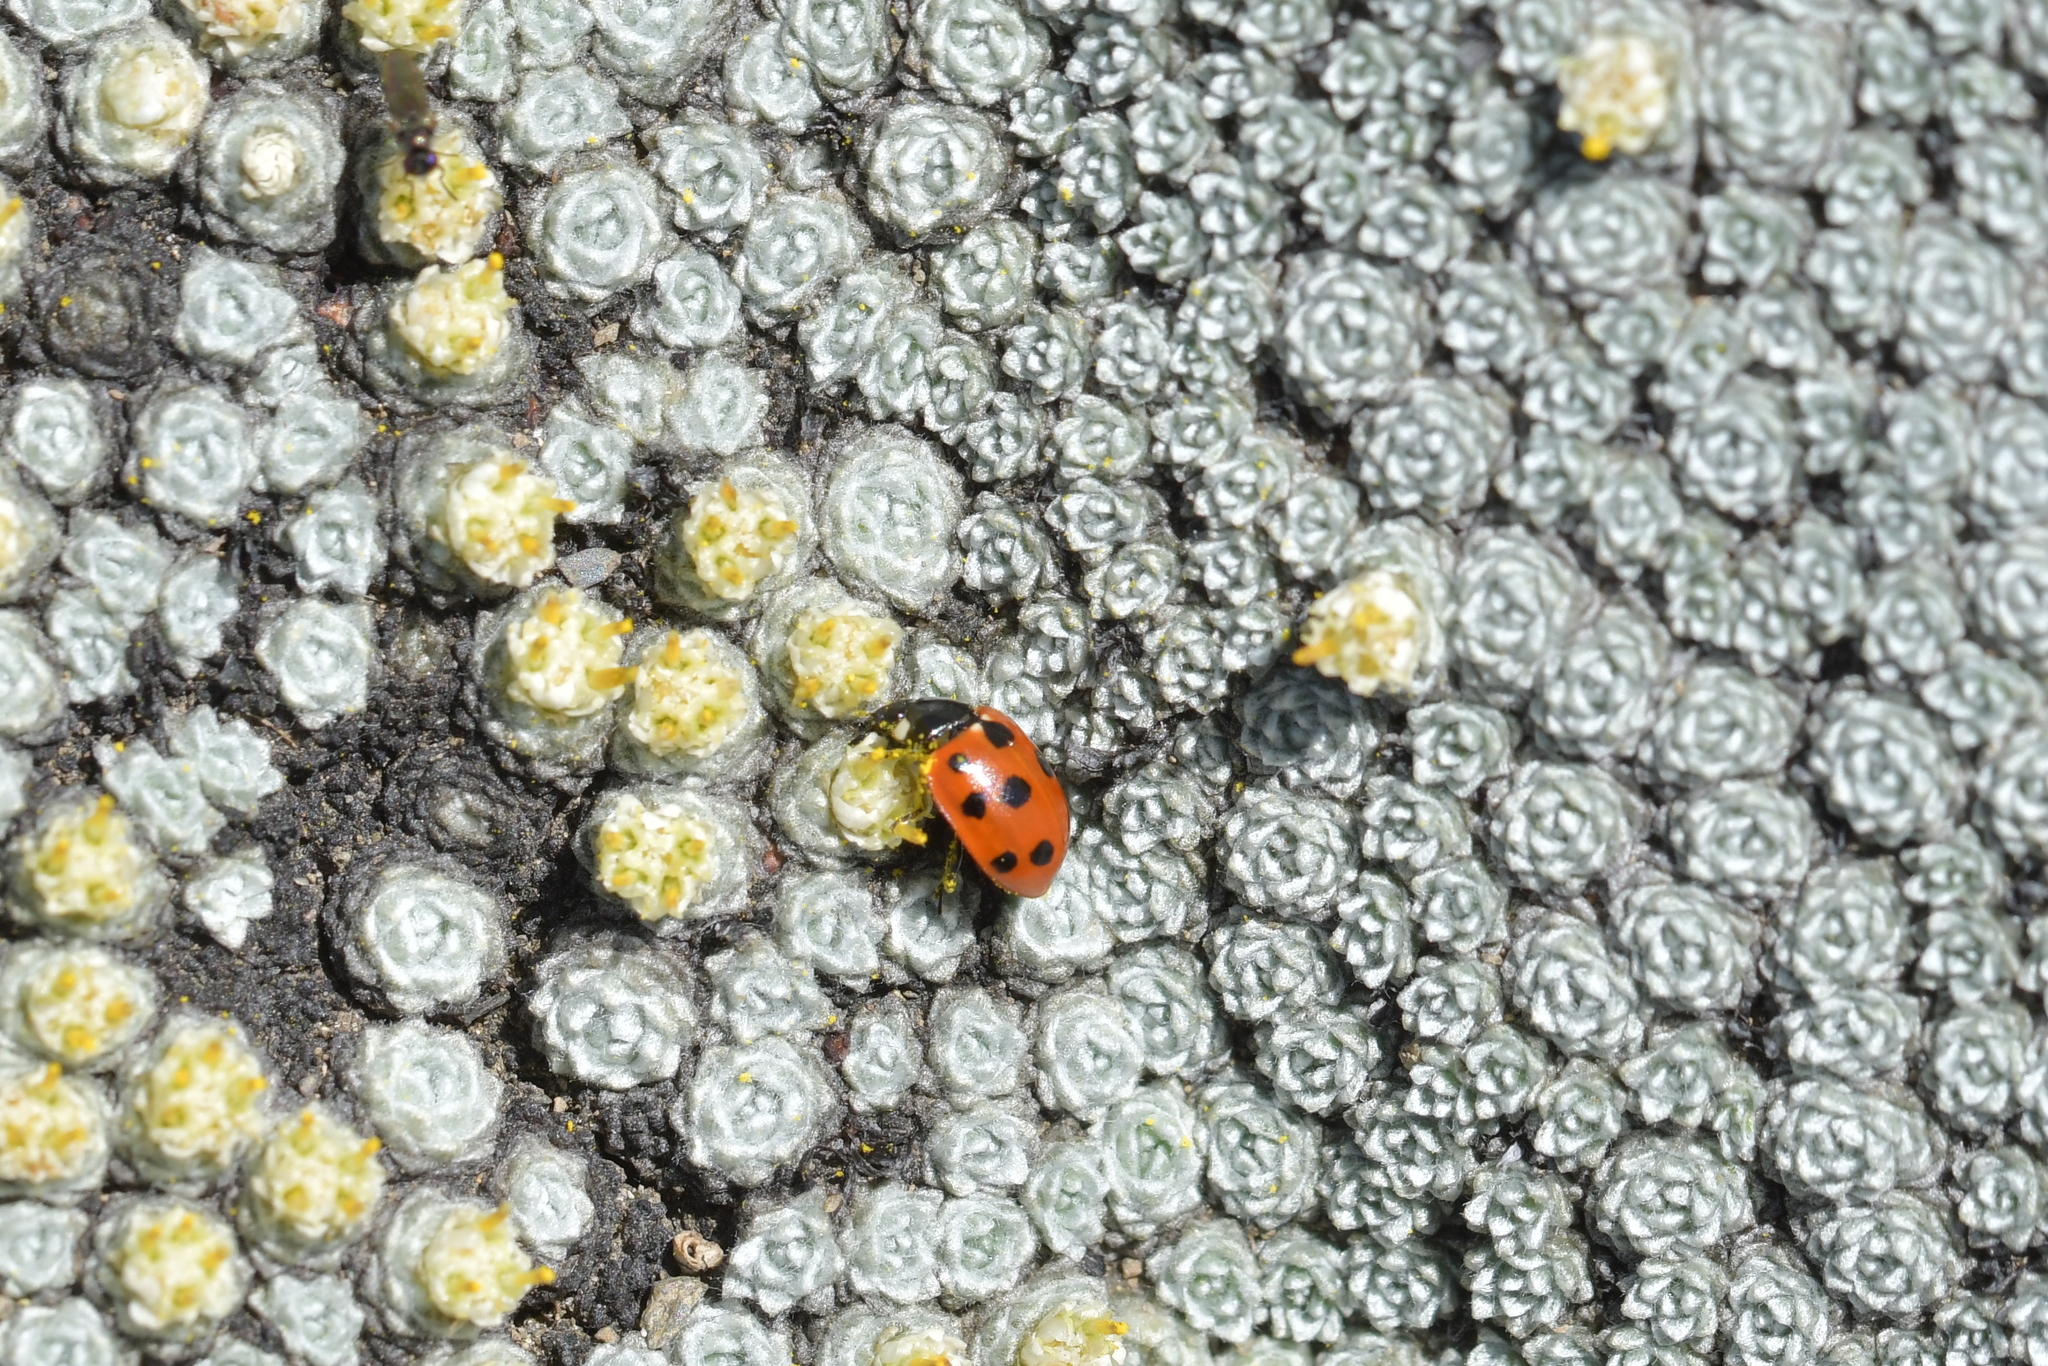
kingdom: Animalia
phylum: Arthropoda
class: Insecta
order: Coleoptera
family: Coccinellidae
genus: Coccinella
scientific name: Coccinella undecimpunctata
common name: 11-spot ladybird
